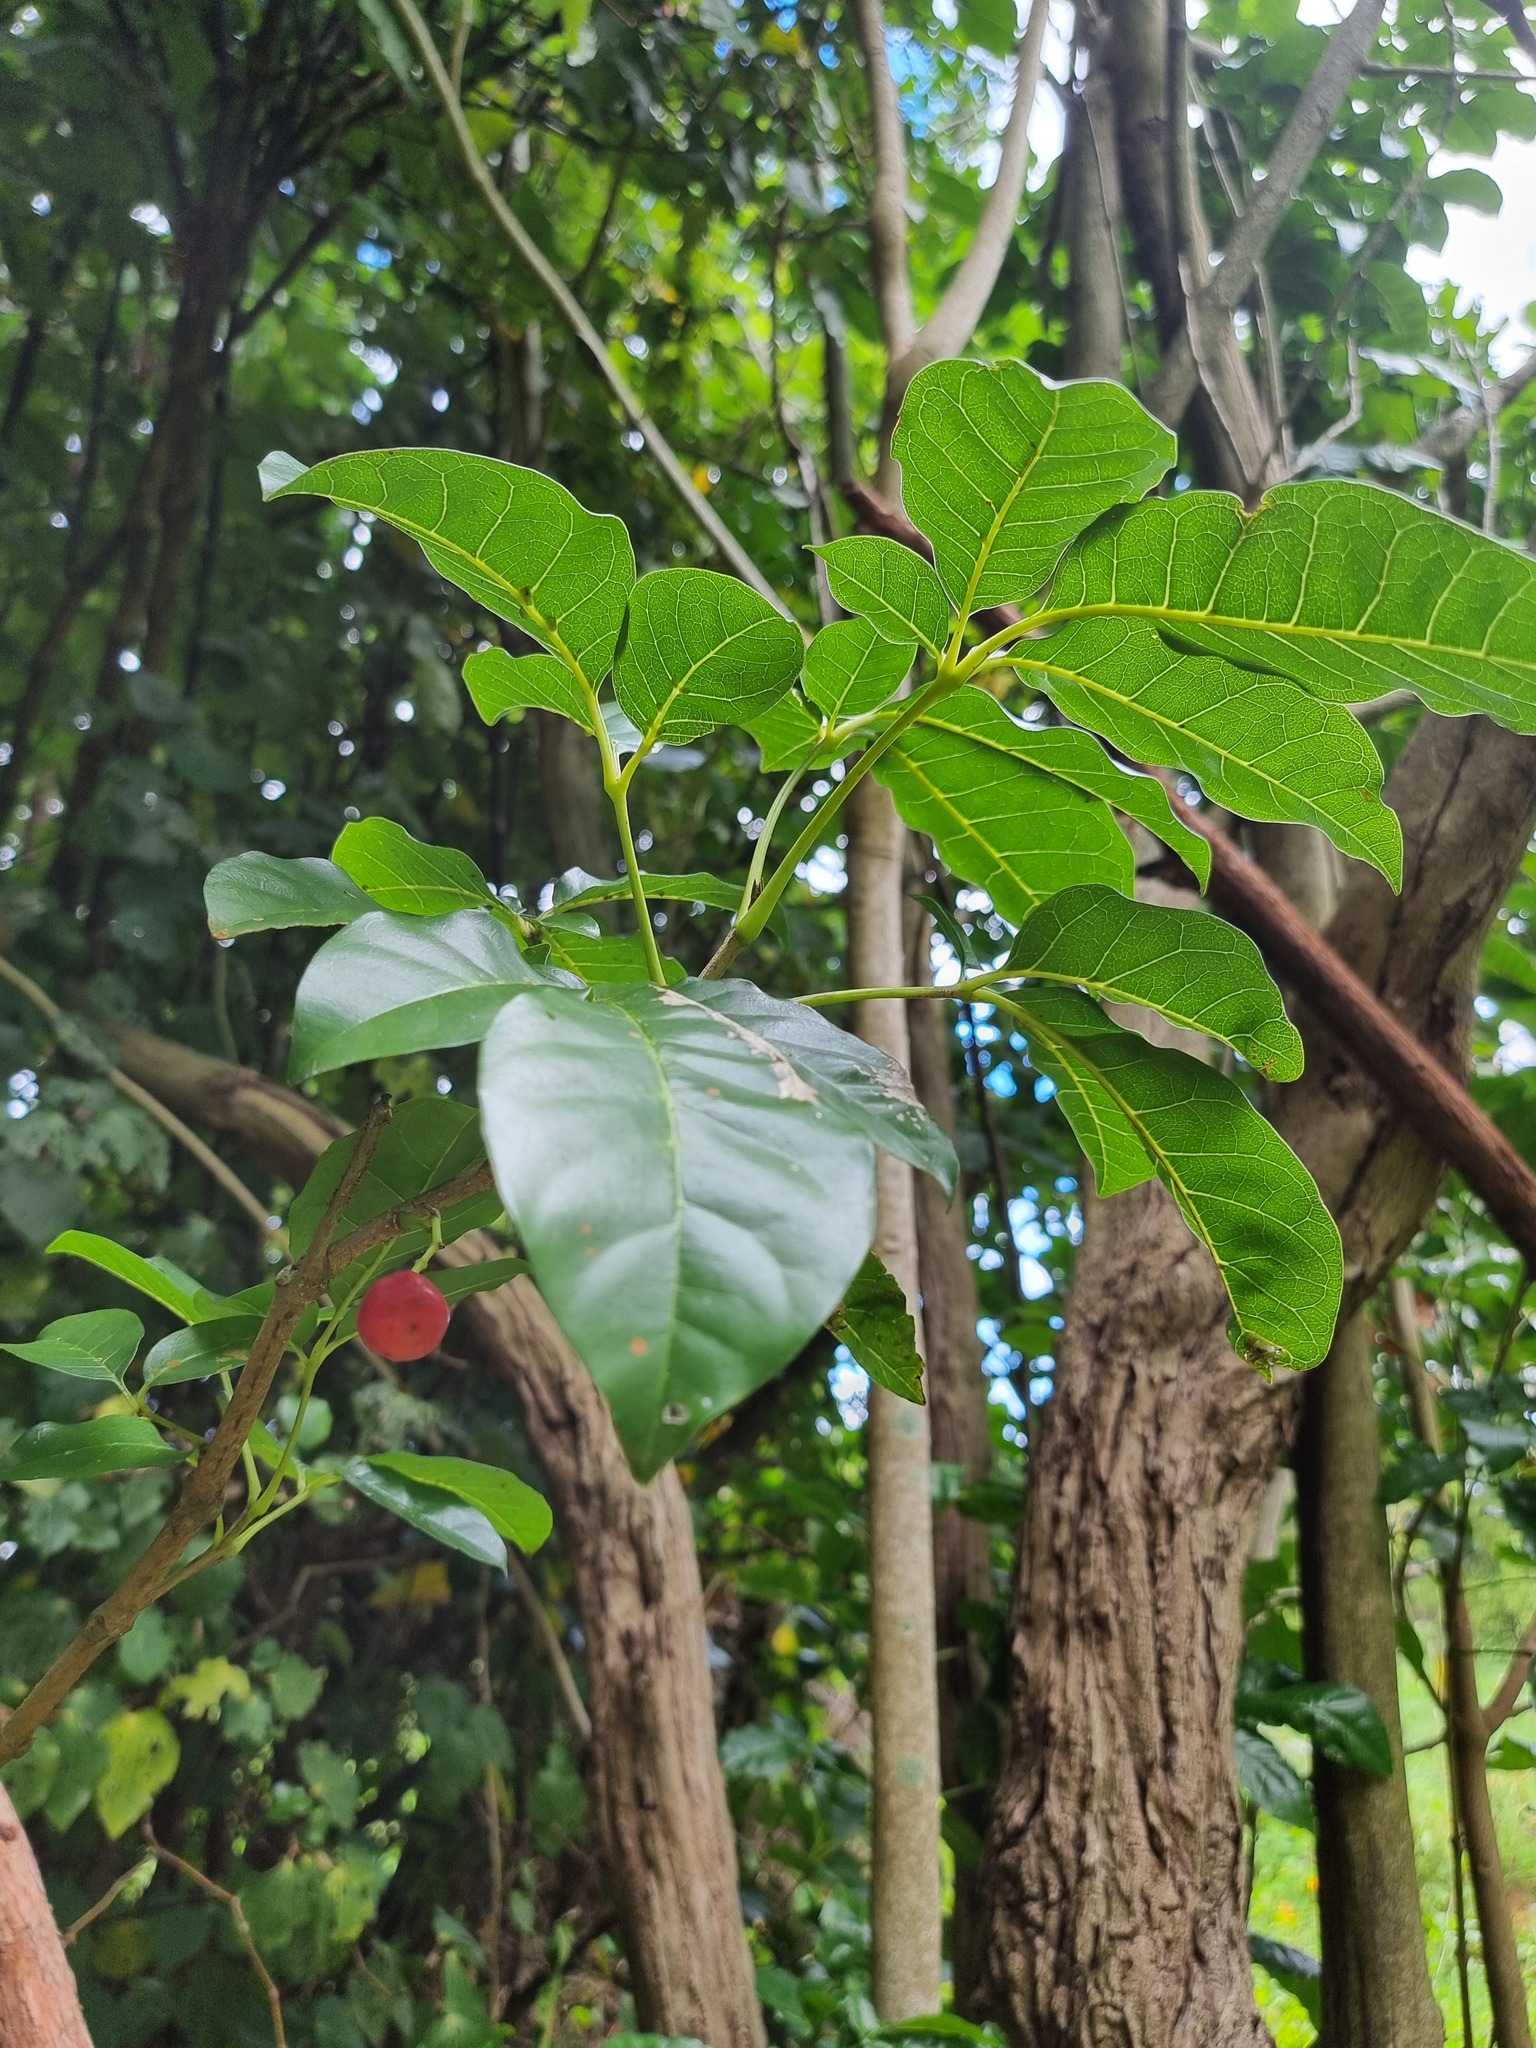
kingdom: Plantae
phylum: Tracheophyta
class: Magnoliopsida
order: Lamiales
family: Lamiaceae
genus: Vitex
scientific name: Vitex lucens
